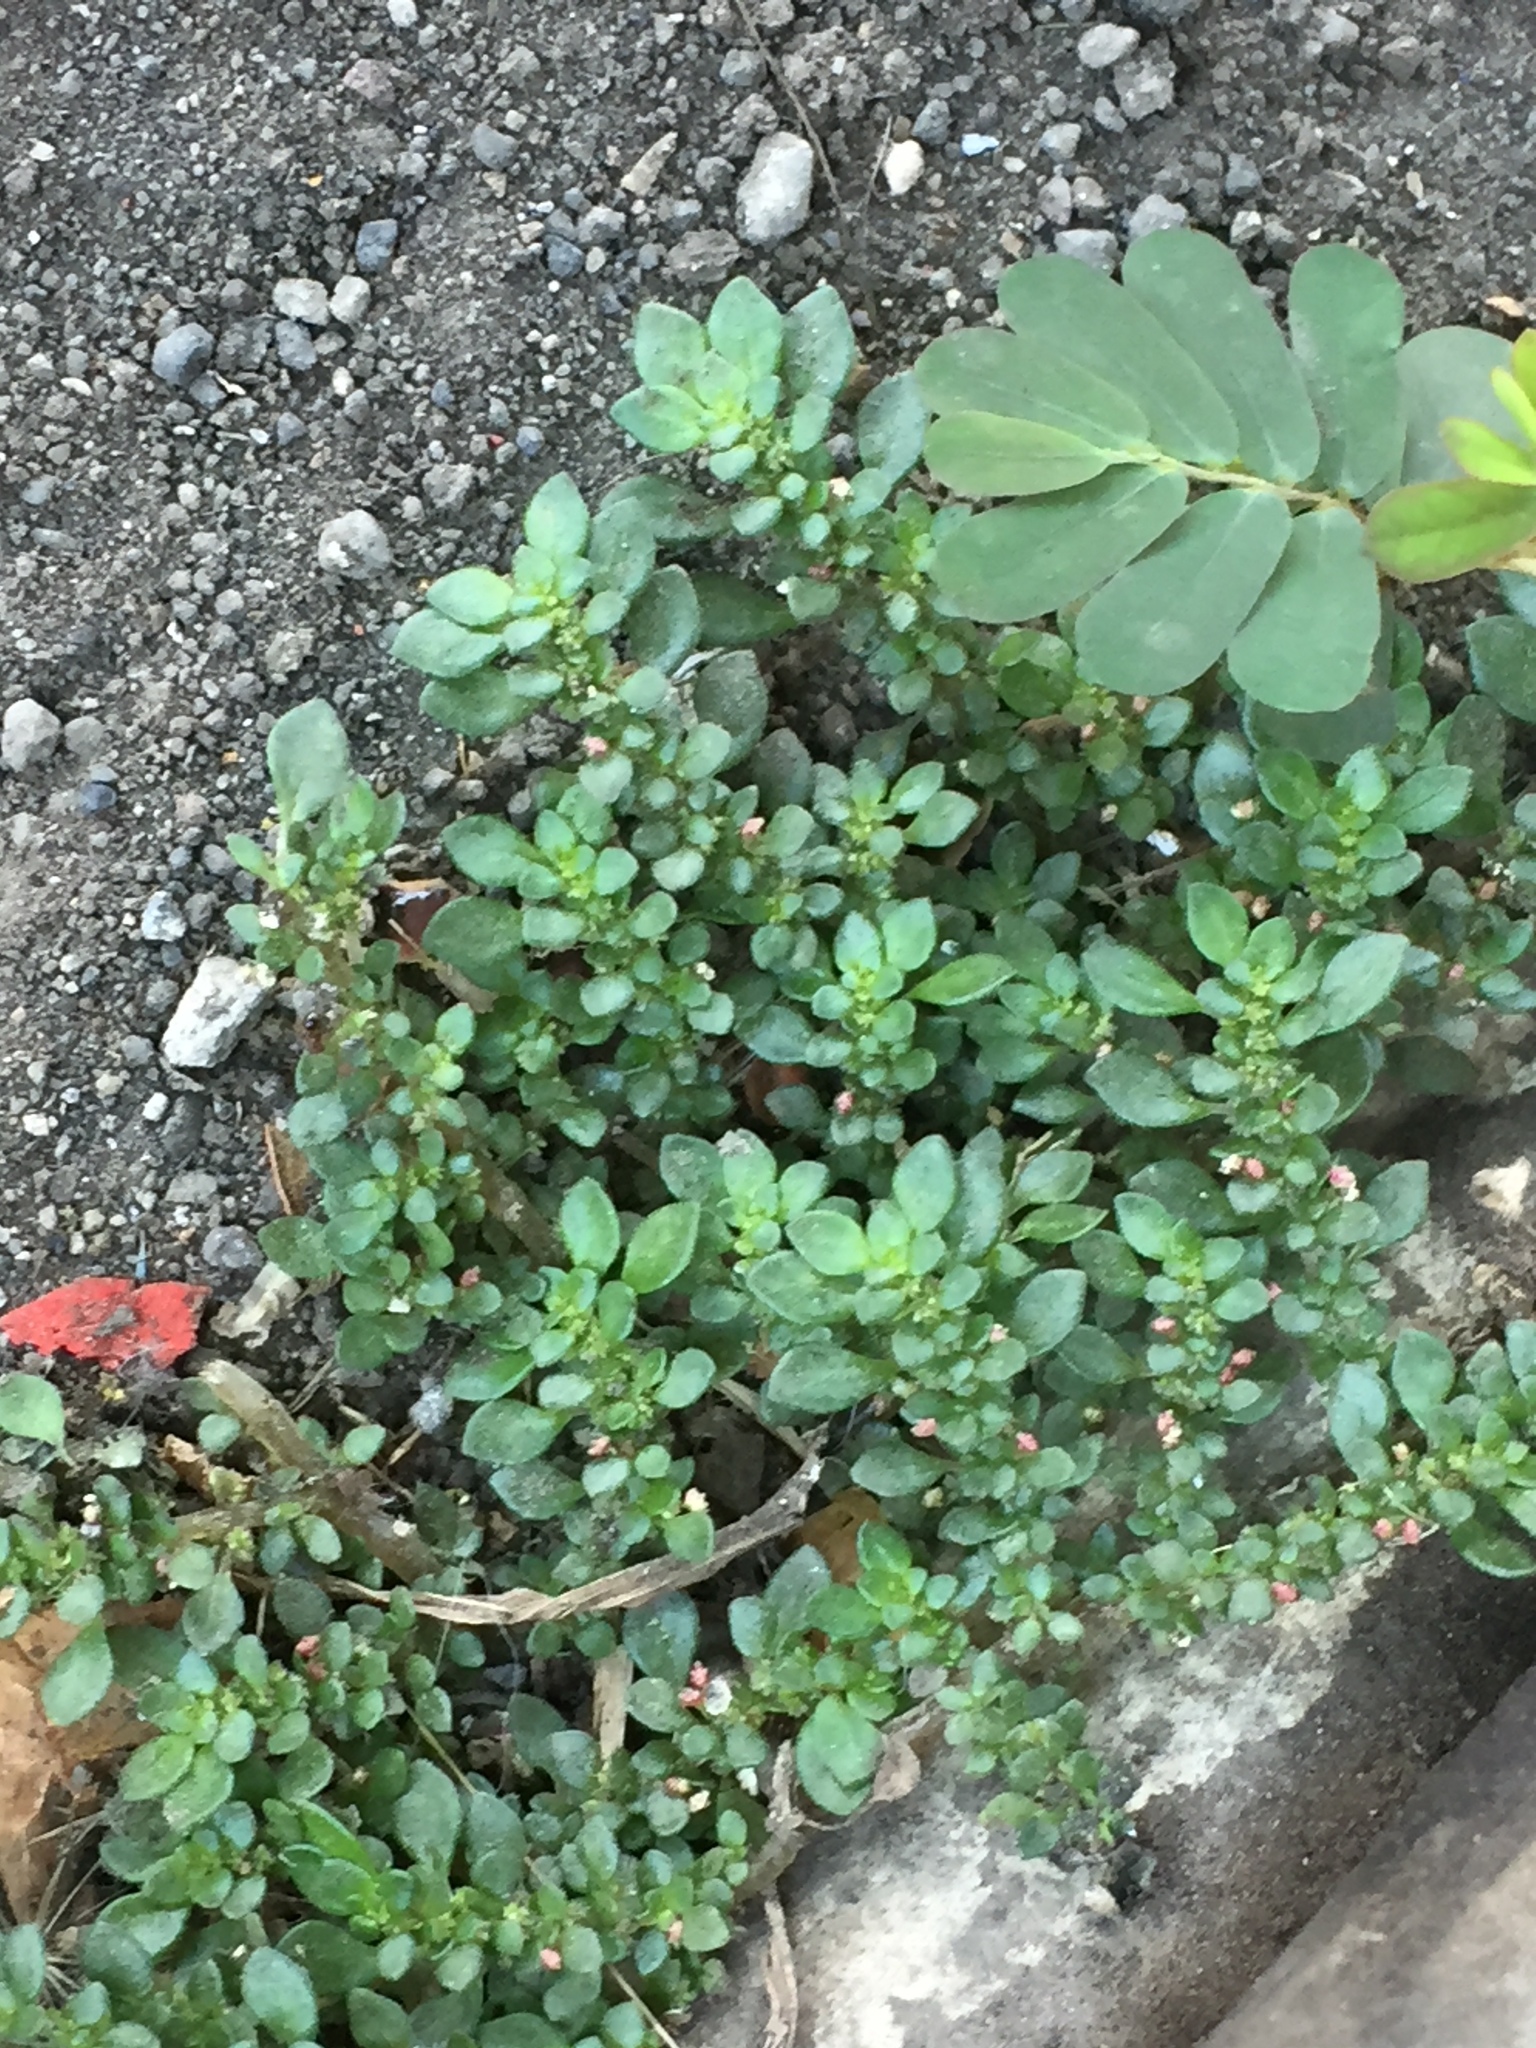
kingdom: Plantae
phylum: Tracheophyta
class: Magnoliopsida
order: Rosales
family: Urticaceae
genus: Pilea
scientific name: Pilea microphylla
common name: Artillery-plant
